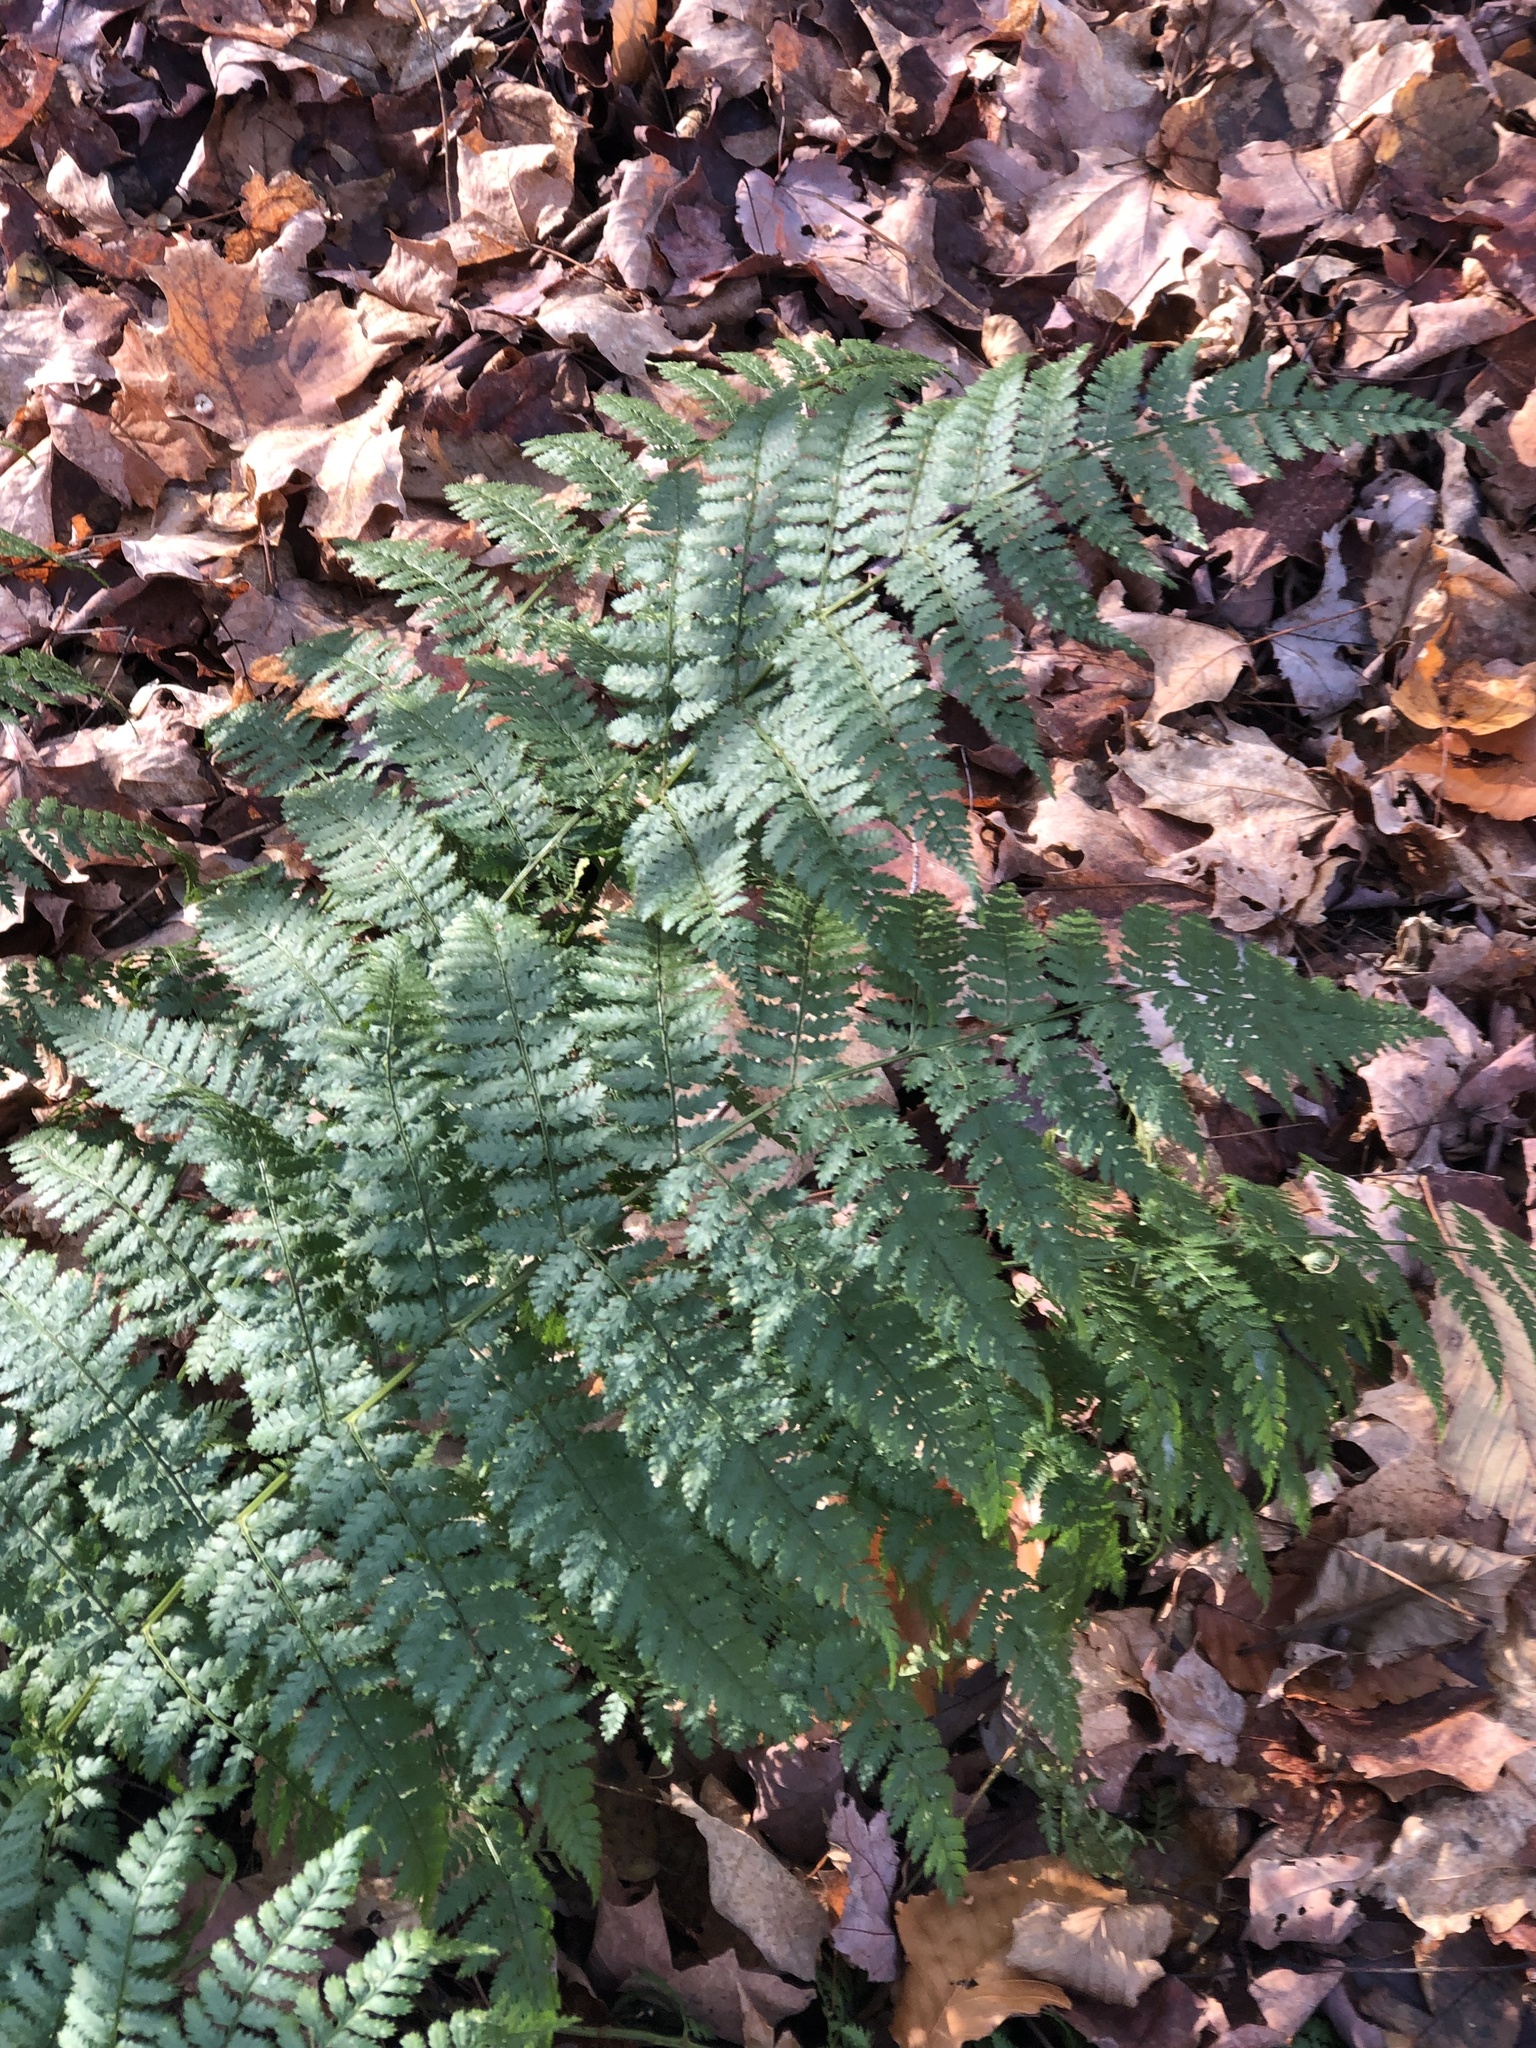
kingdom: Plantae
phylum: Tracheophyta
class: Polypodiopsida
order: Polypodiales
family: Dryopteridaceae
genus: Dryopteris
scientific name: Dryopteris intermedia
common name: Evergreen wood fern
